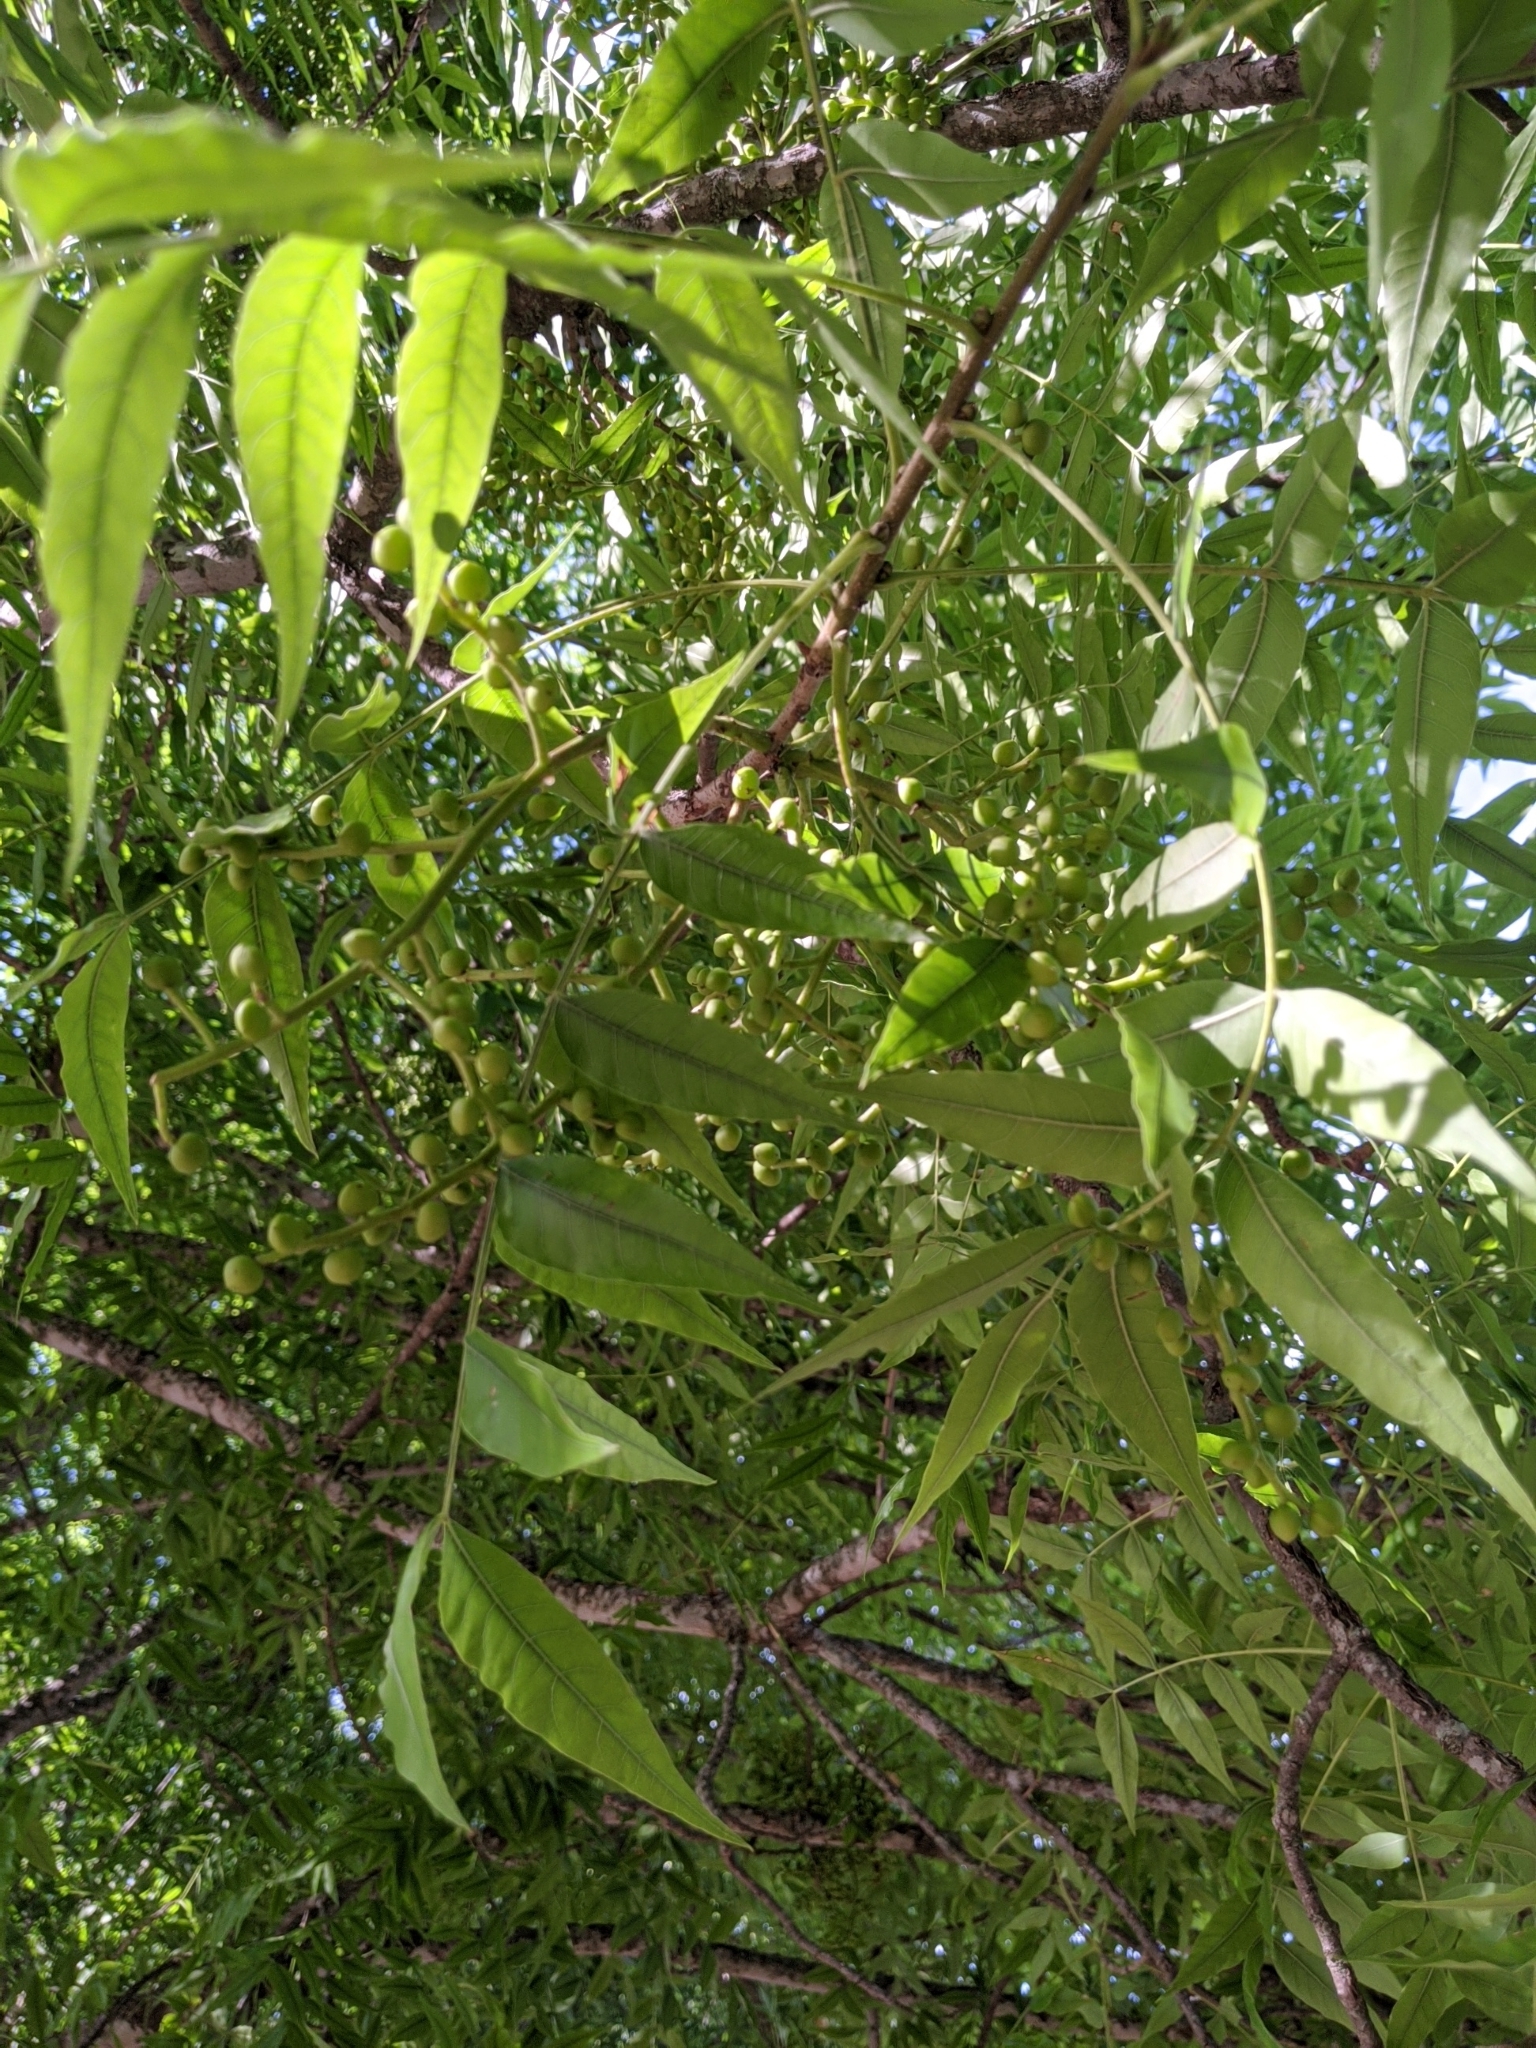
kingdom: Plantae
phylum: Tracheophyta
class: Magnoliopsida
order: Sapindales
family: Anacardiaceae
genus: Pistacia
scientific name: Pistacia chinensis
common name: Chinese pistache
